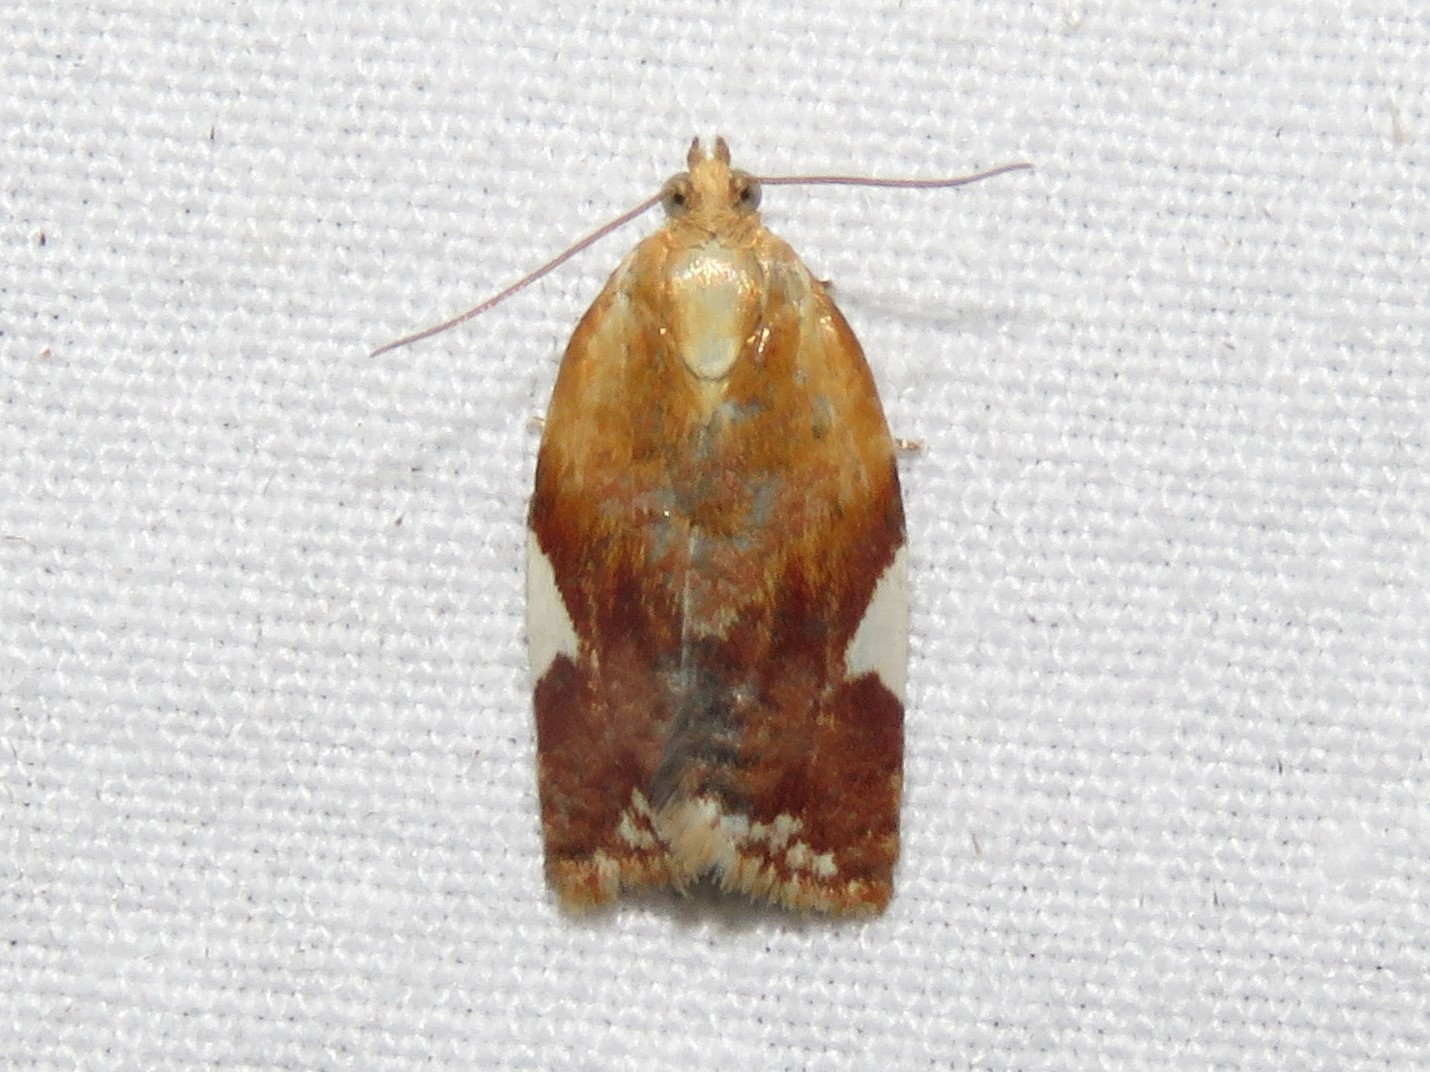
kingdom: Animalia
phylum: Arthropoda
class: Insecta
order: Lepidoptera
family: Tortricidae
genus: Clepsis
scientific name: Clepsis persicana
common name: White triangle tortrix
